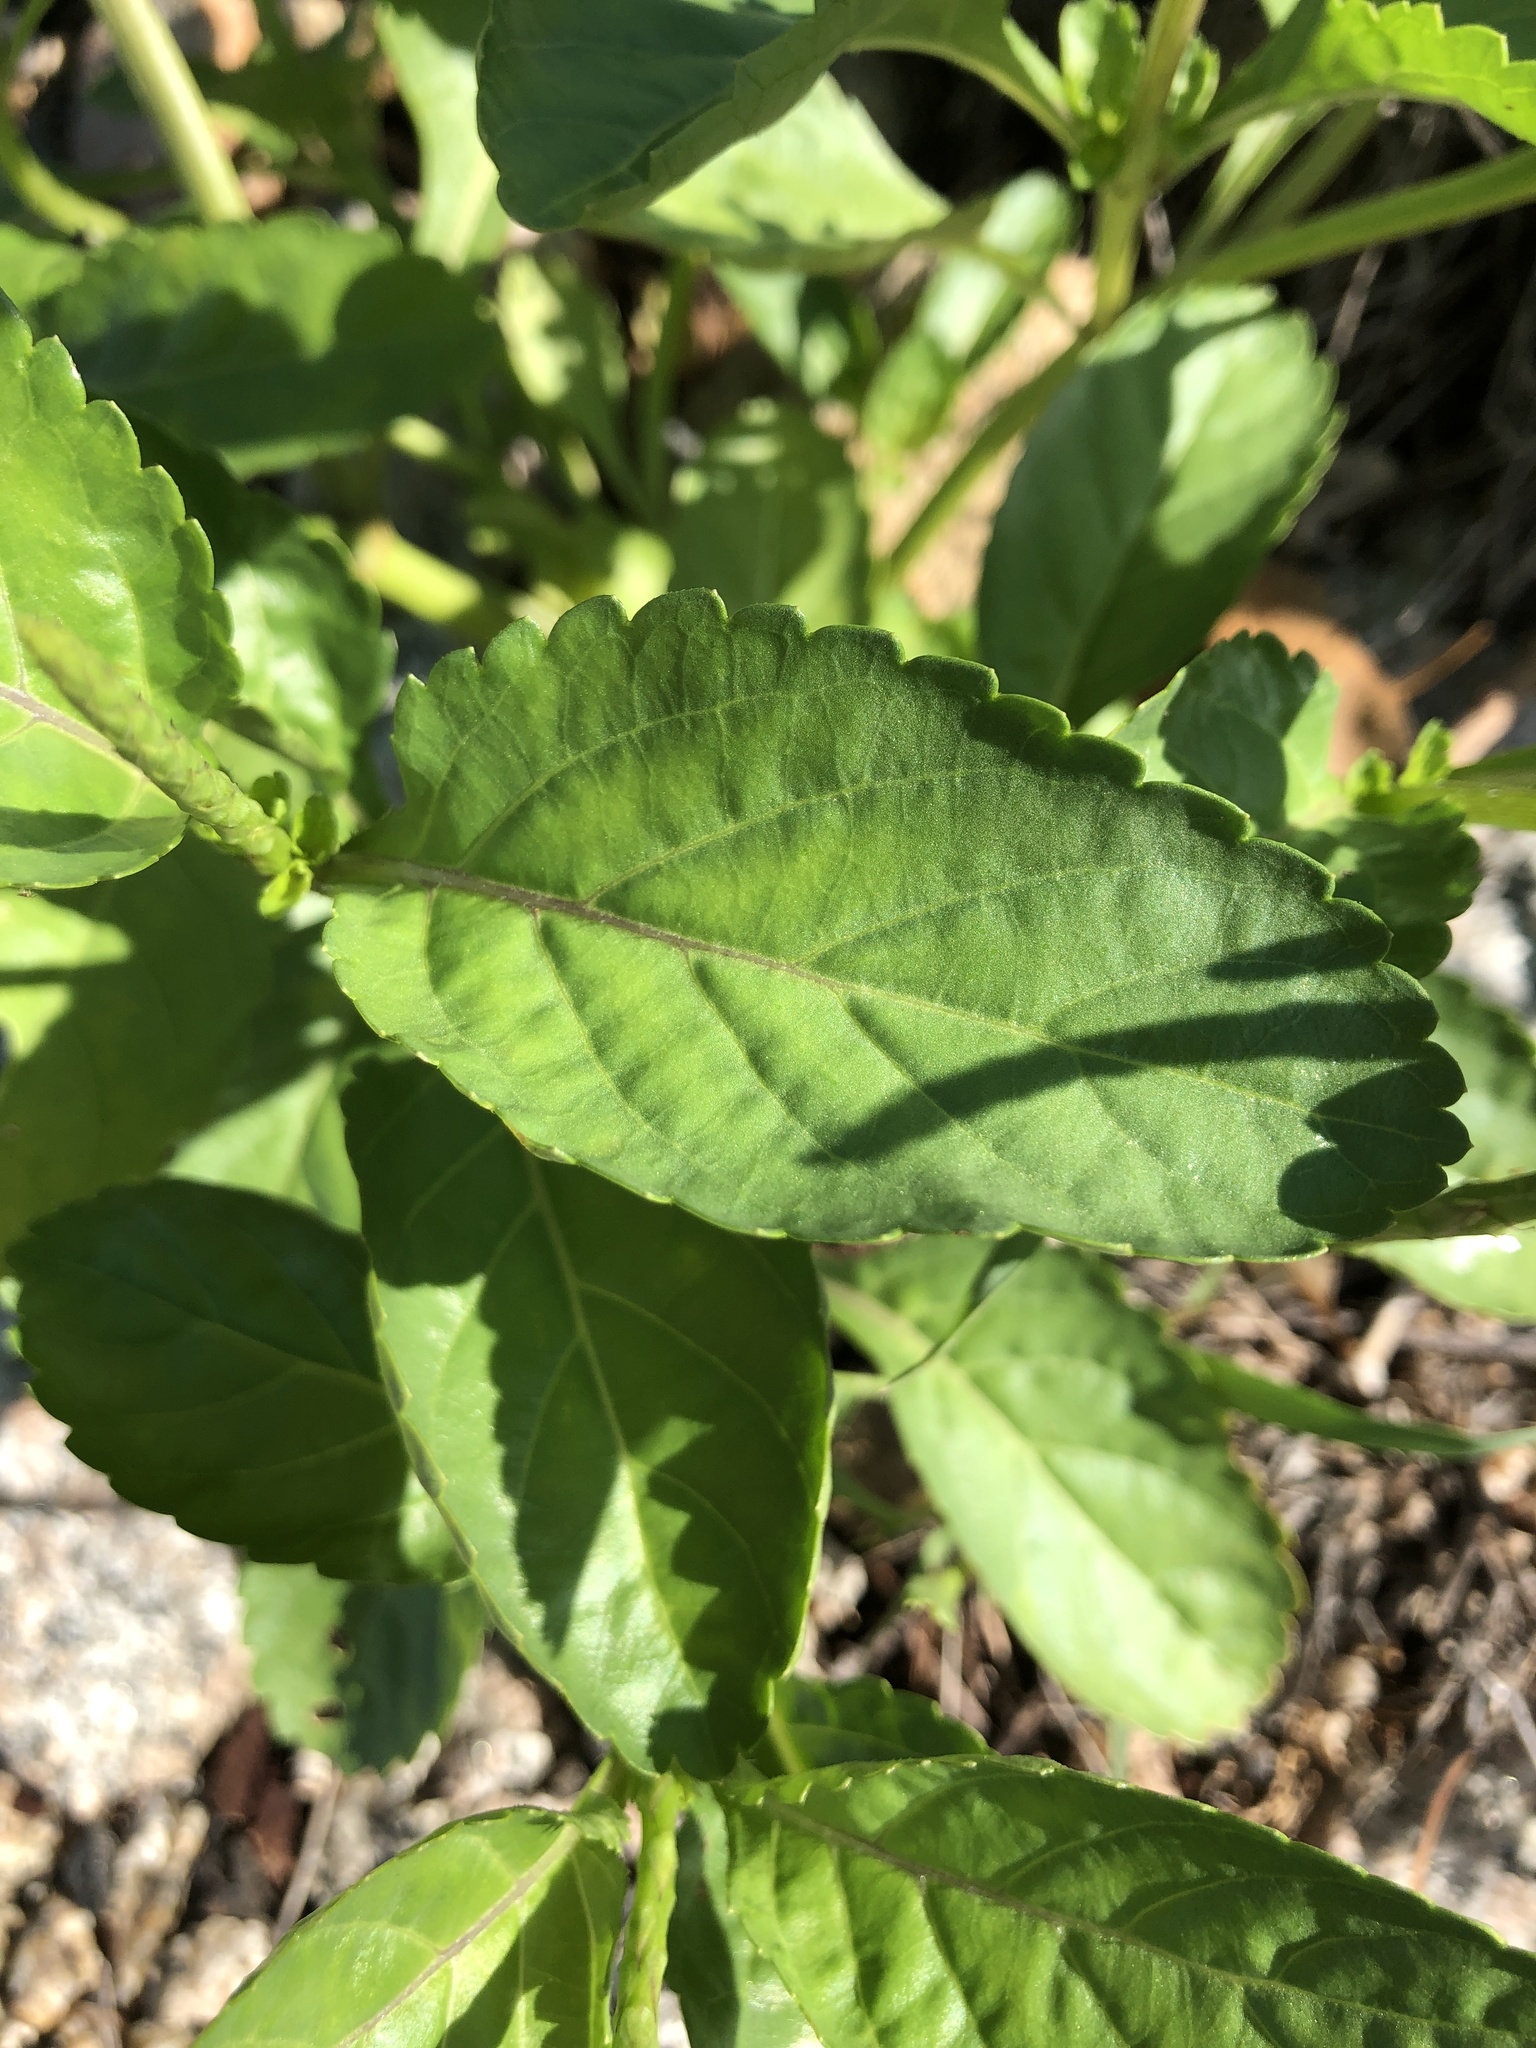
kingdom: Plantae
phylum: Tracheophyta
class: Magnoliopsida
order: Lamiales
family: Verbenaceae
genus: Stachytarpheta
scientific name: Stachytarpheta jamaicensis
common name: Light-blue snakeweed
